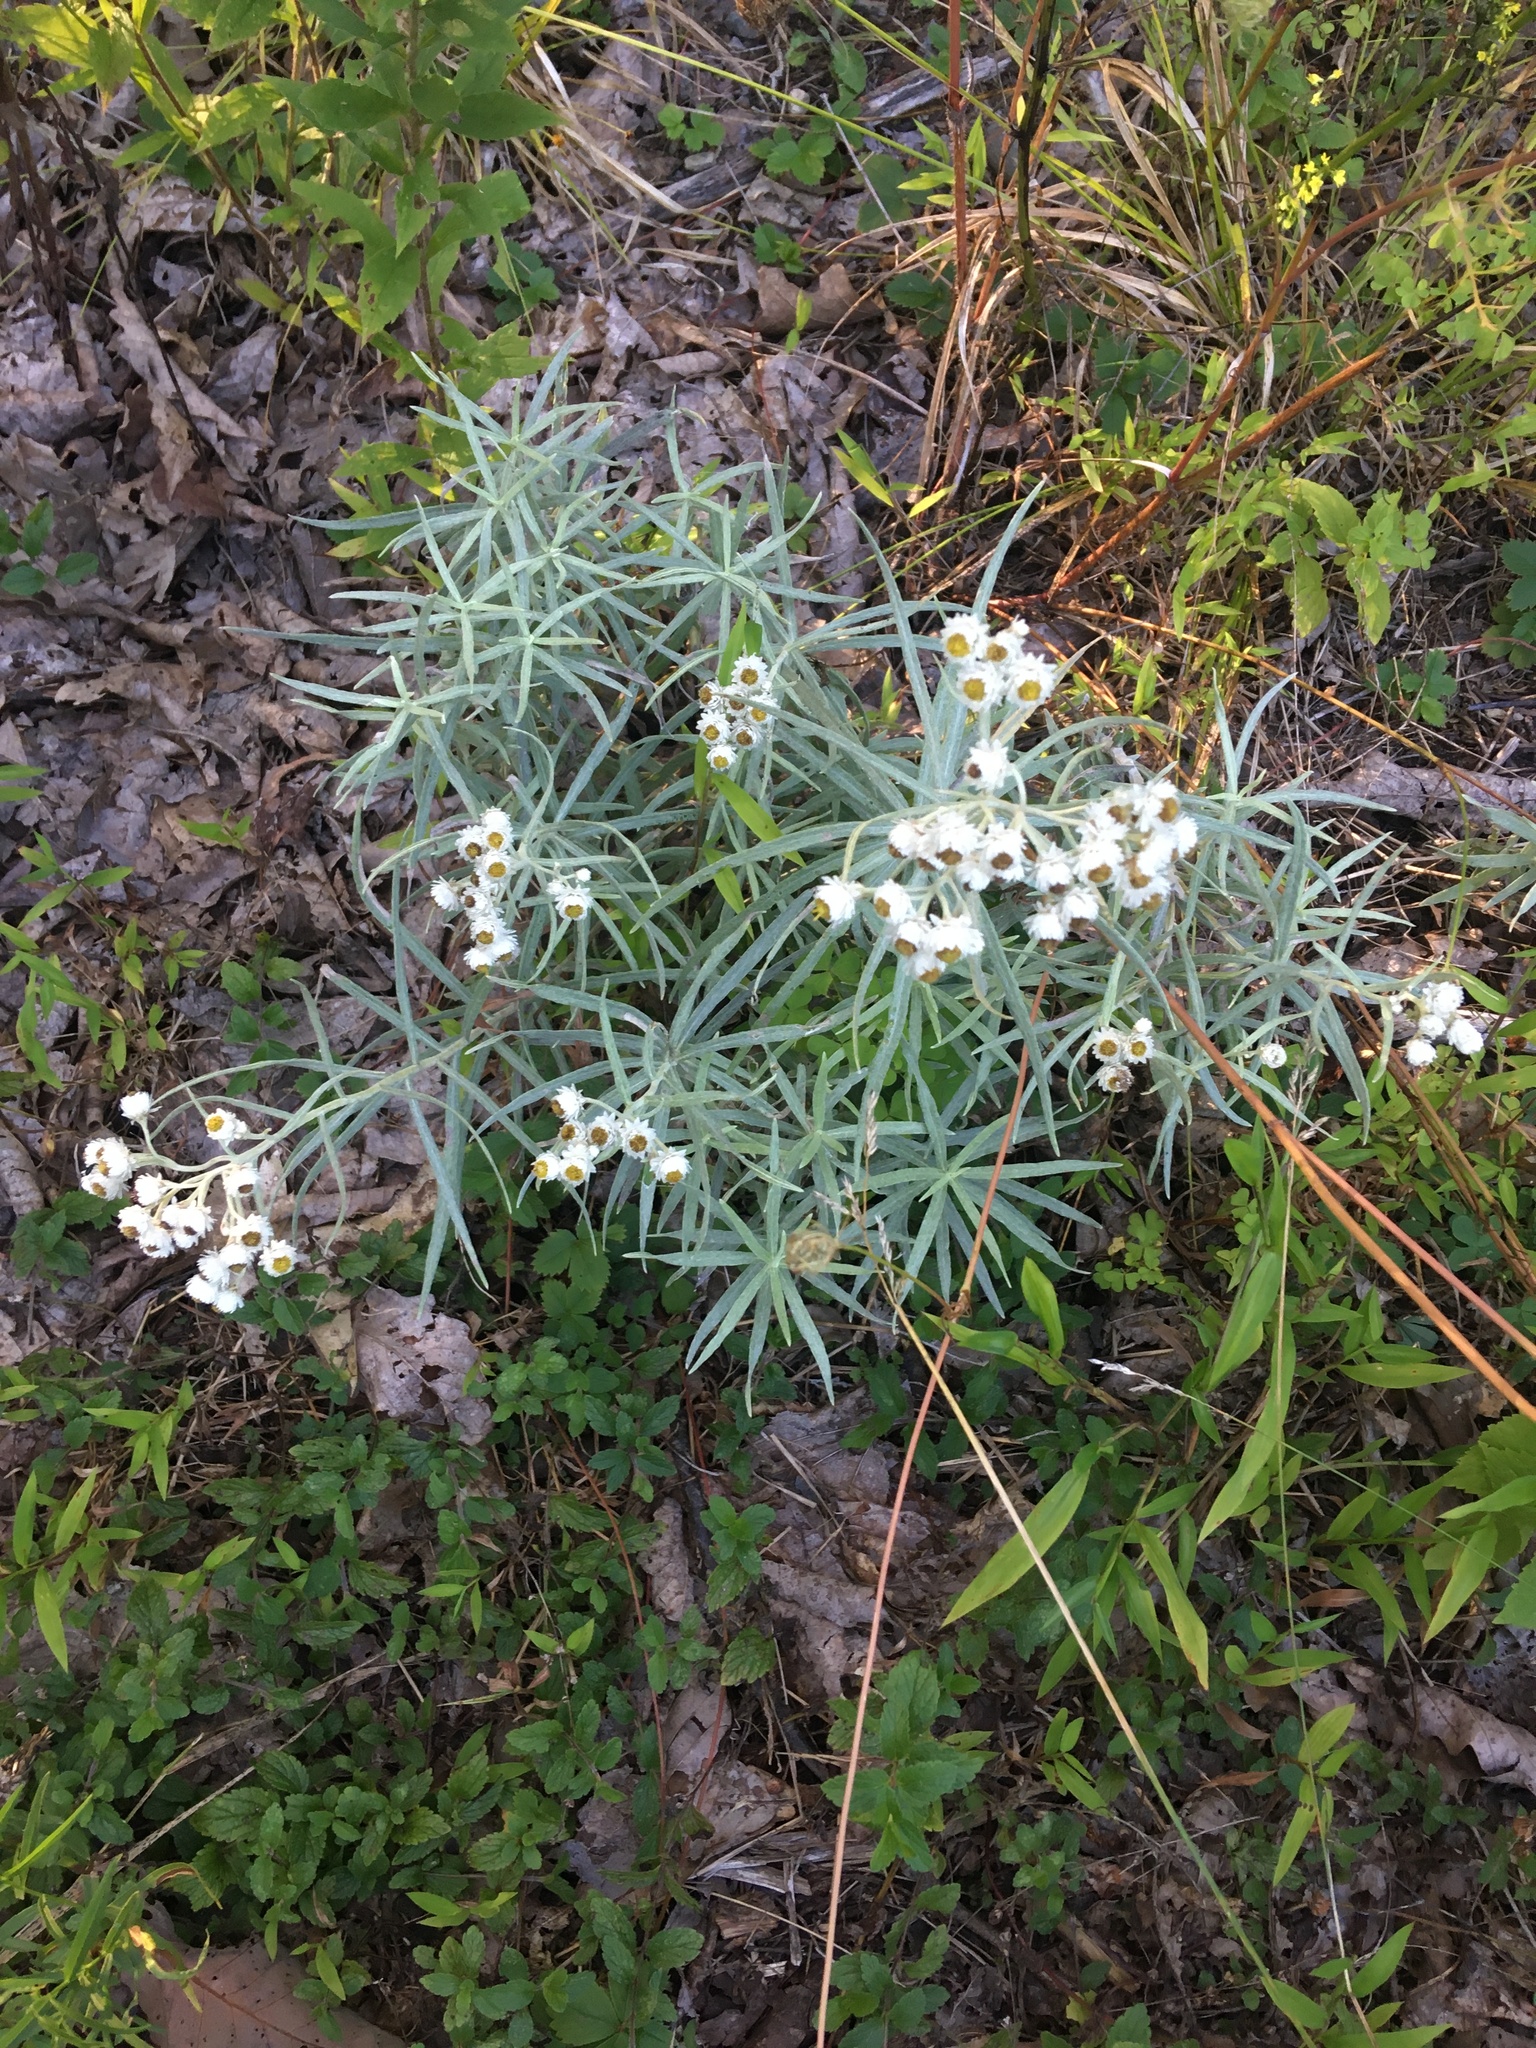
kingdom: Plantae
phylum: Tracheophyta
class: Magnoliopsida
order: Asterales
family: Asteraceae
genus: Anaphalis
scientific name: Anaphalis margaritacea
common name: Pearly everlasting
